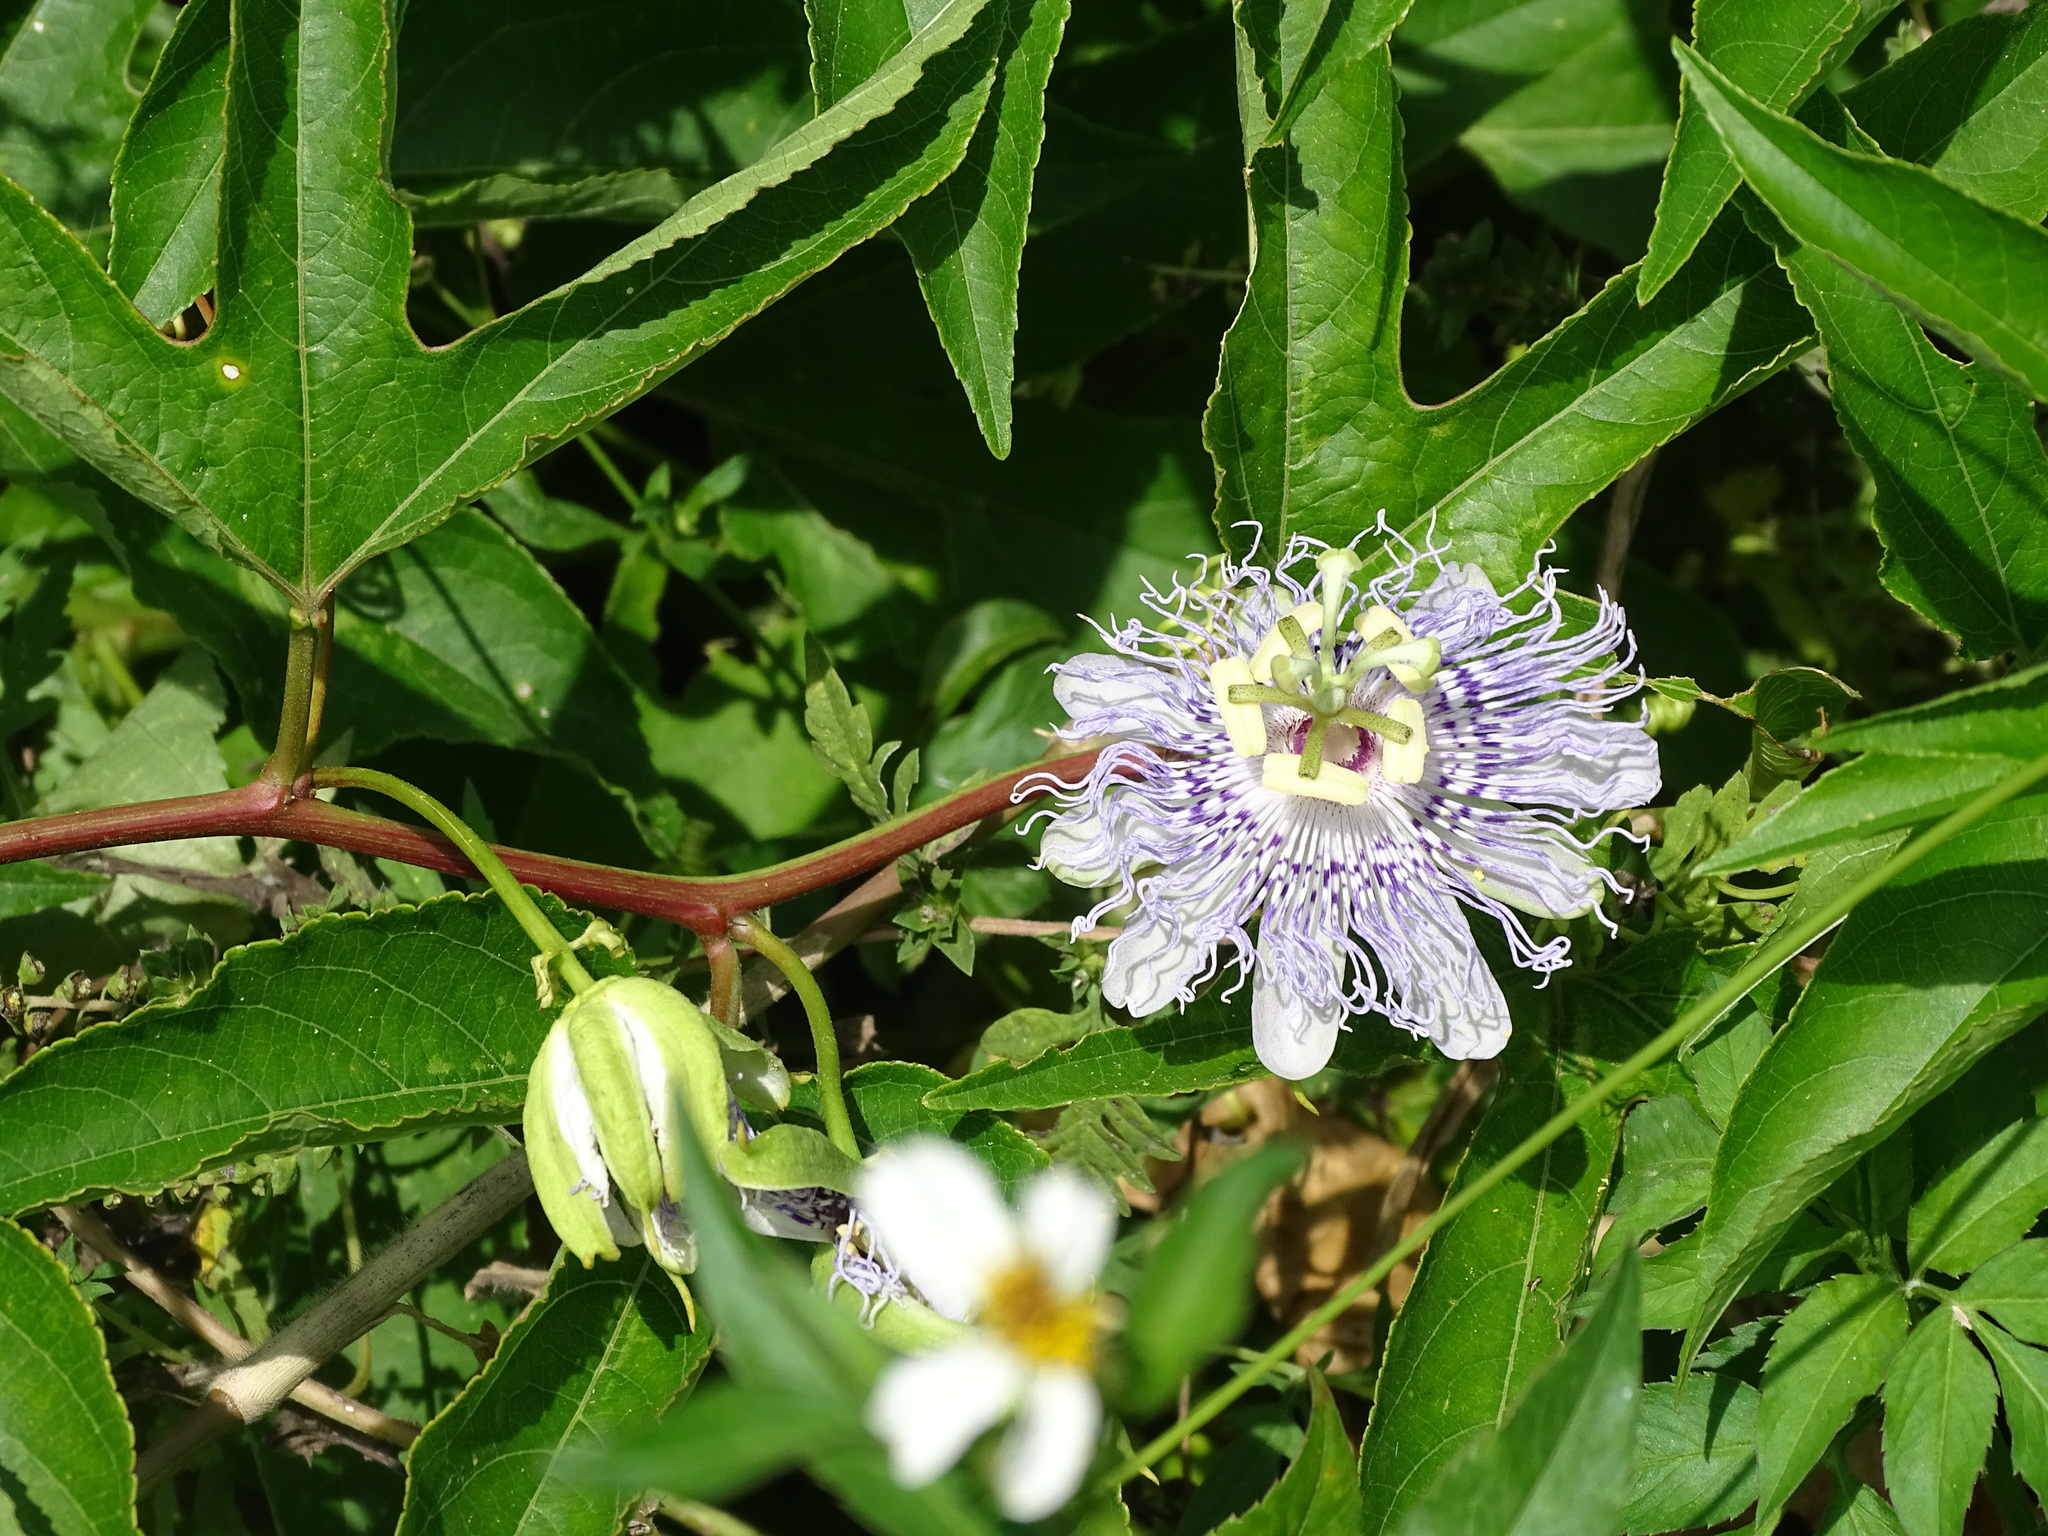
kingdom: Plantae
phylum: Tracheophyta
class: Magnoliopsida
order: Malpighiales
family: Passifloraceae
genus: Passiflora
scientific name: Passiflora incarnata
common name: Apricot-vine
